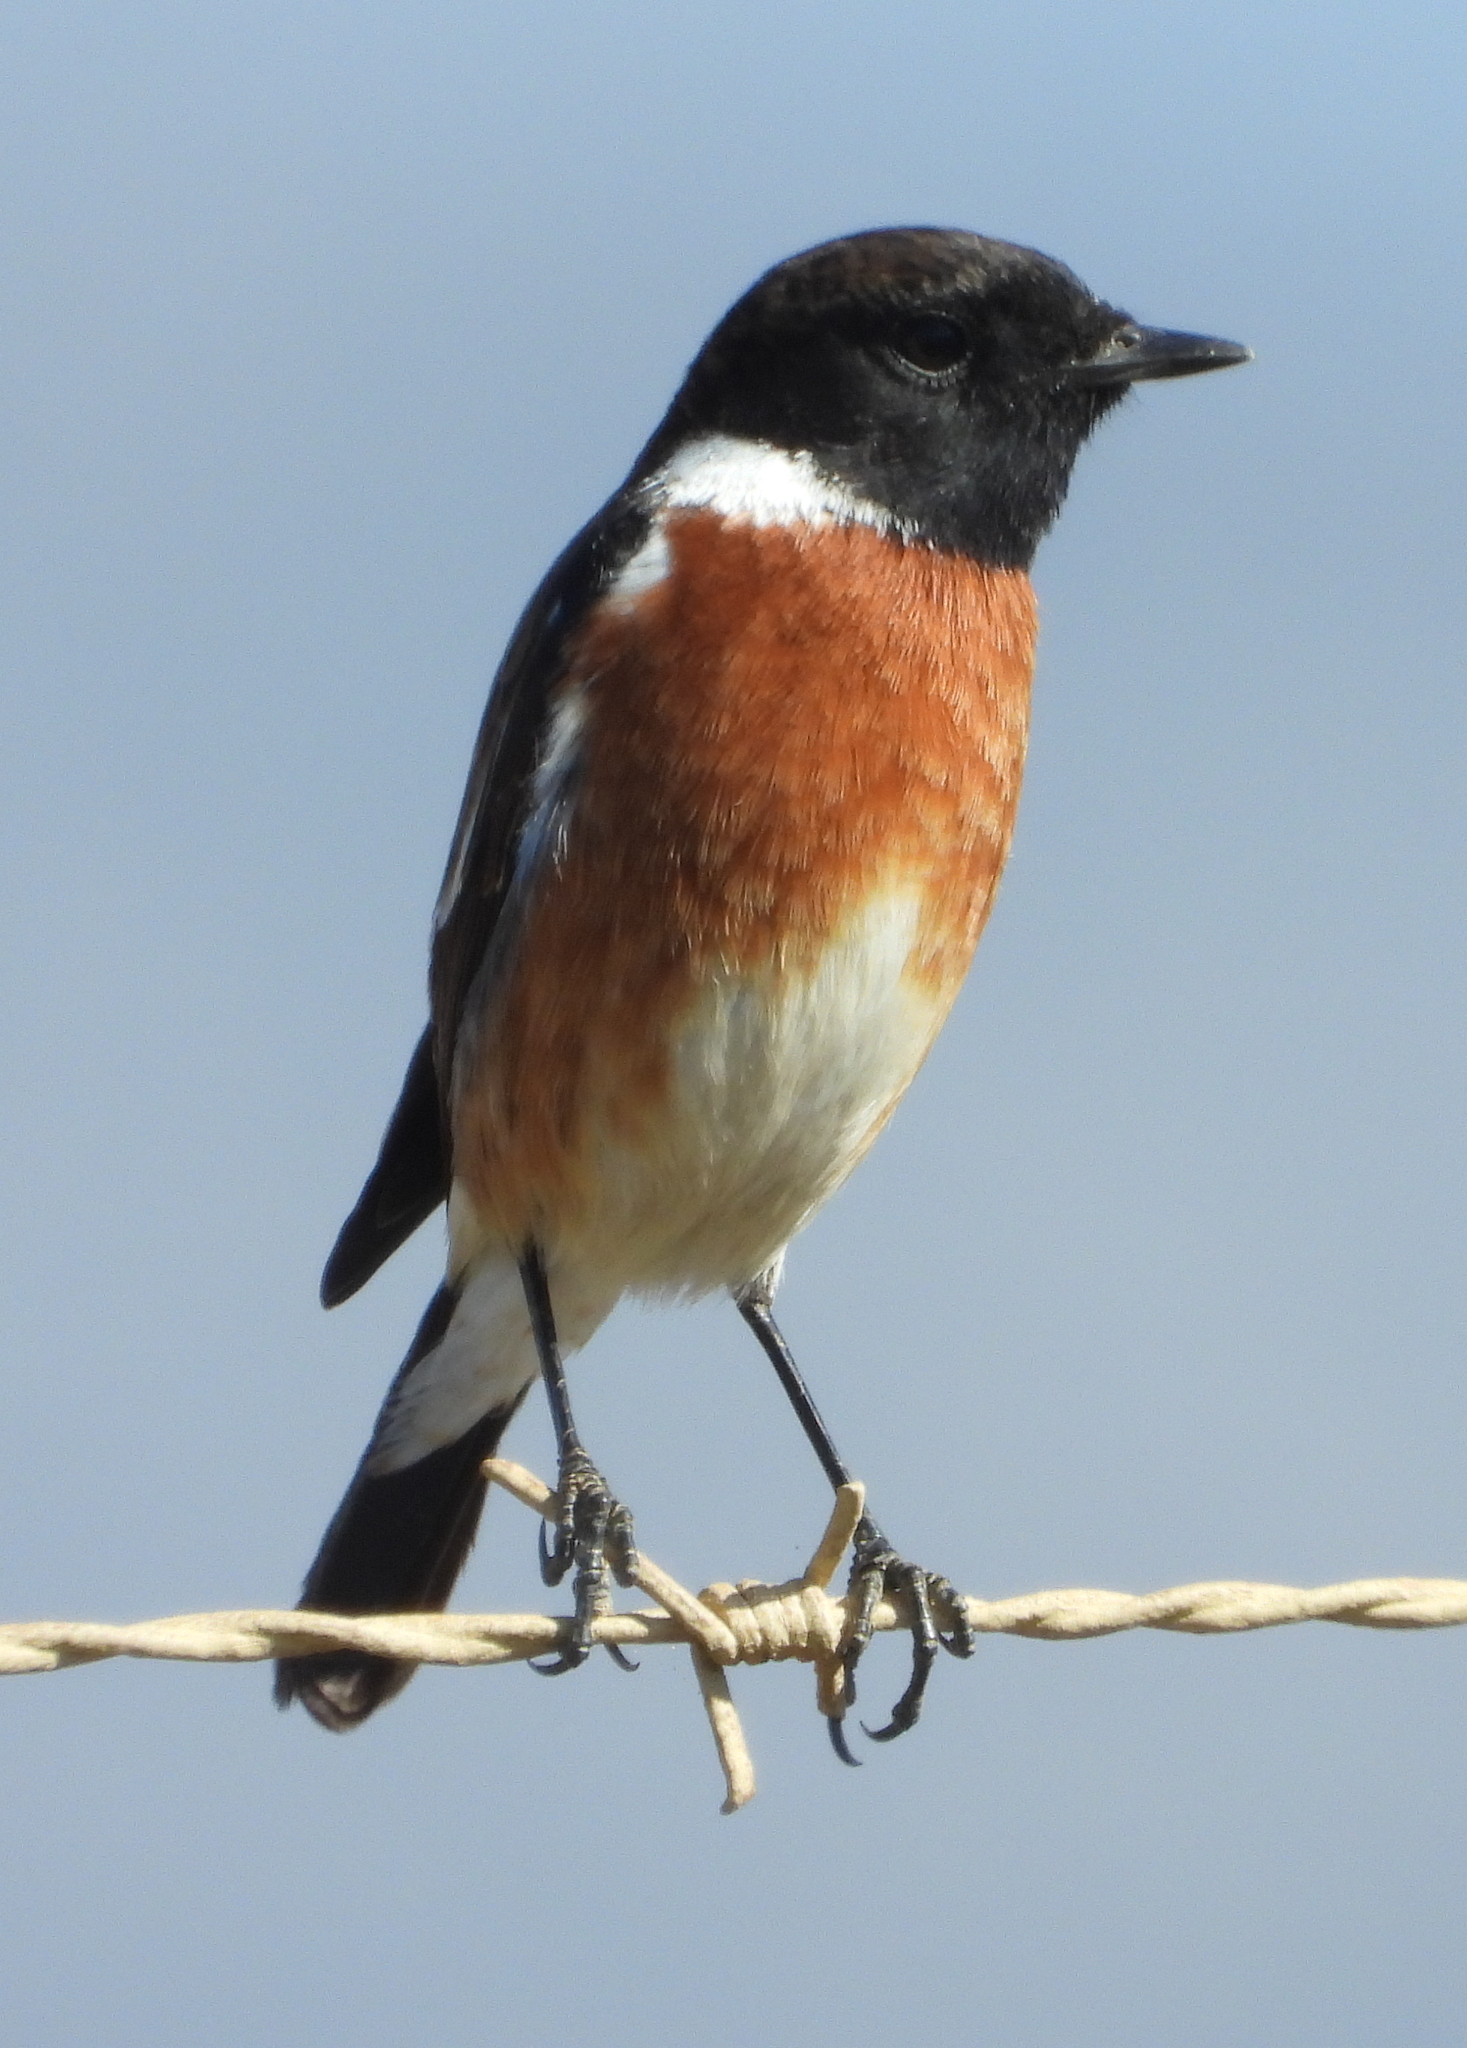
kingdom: Animalia
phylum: Chordata
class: Aves
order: Passeriformes
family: Muscicapidae
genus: Saxicola
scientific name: Saxicola torquatus
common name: African stonechat
